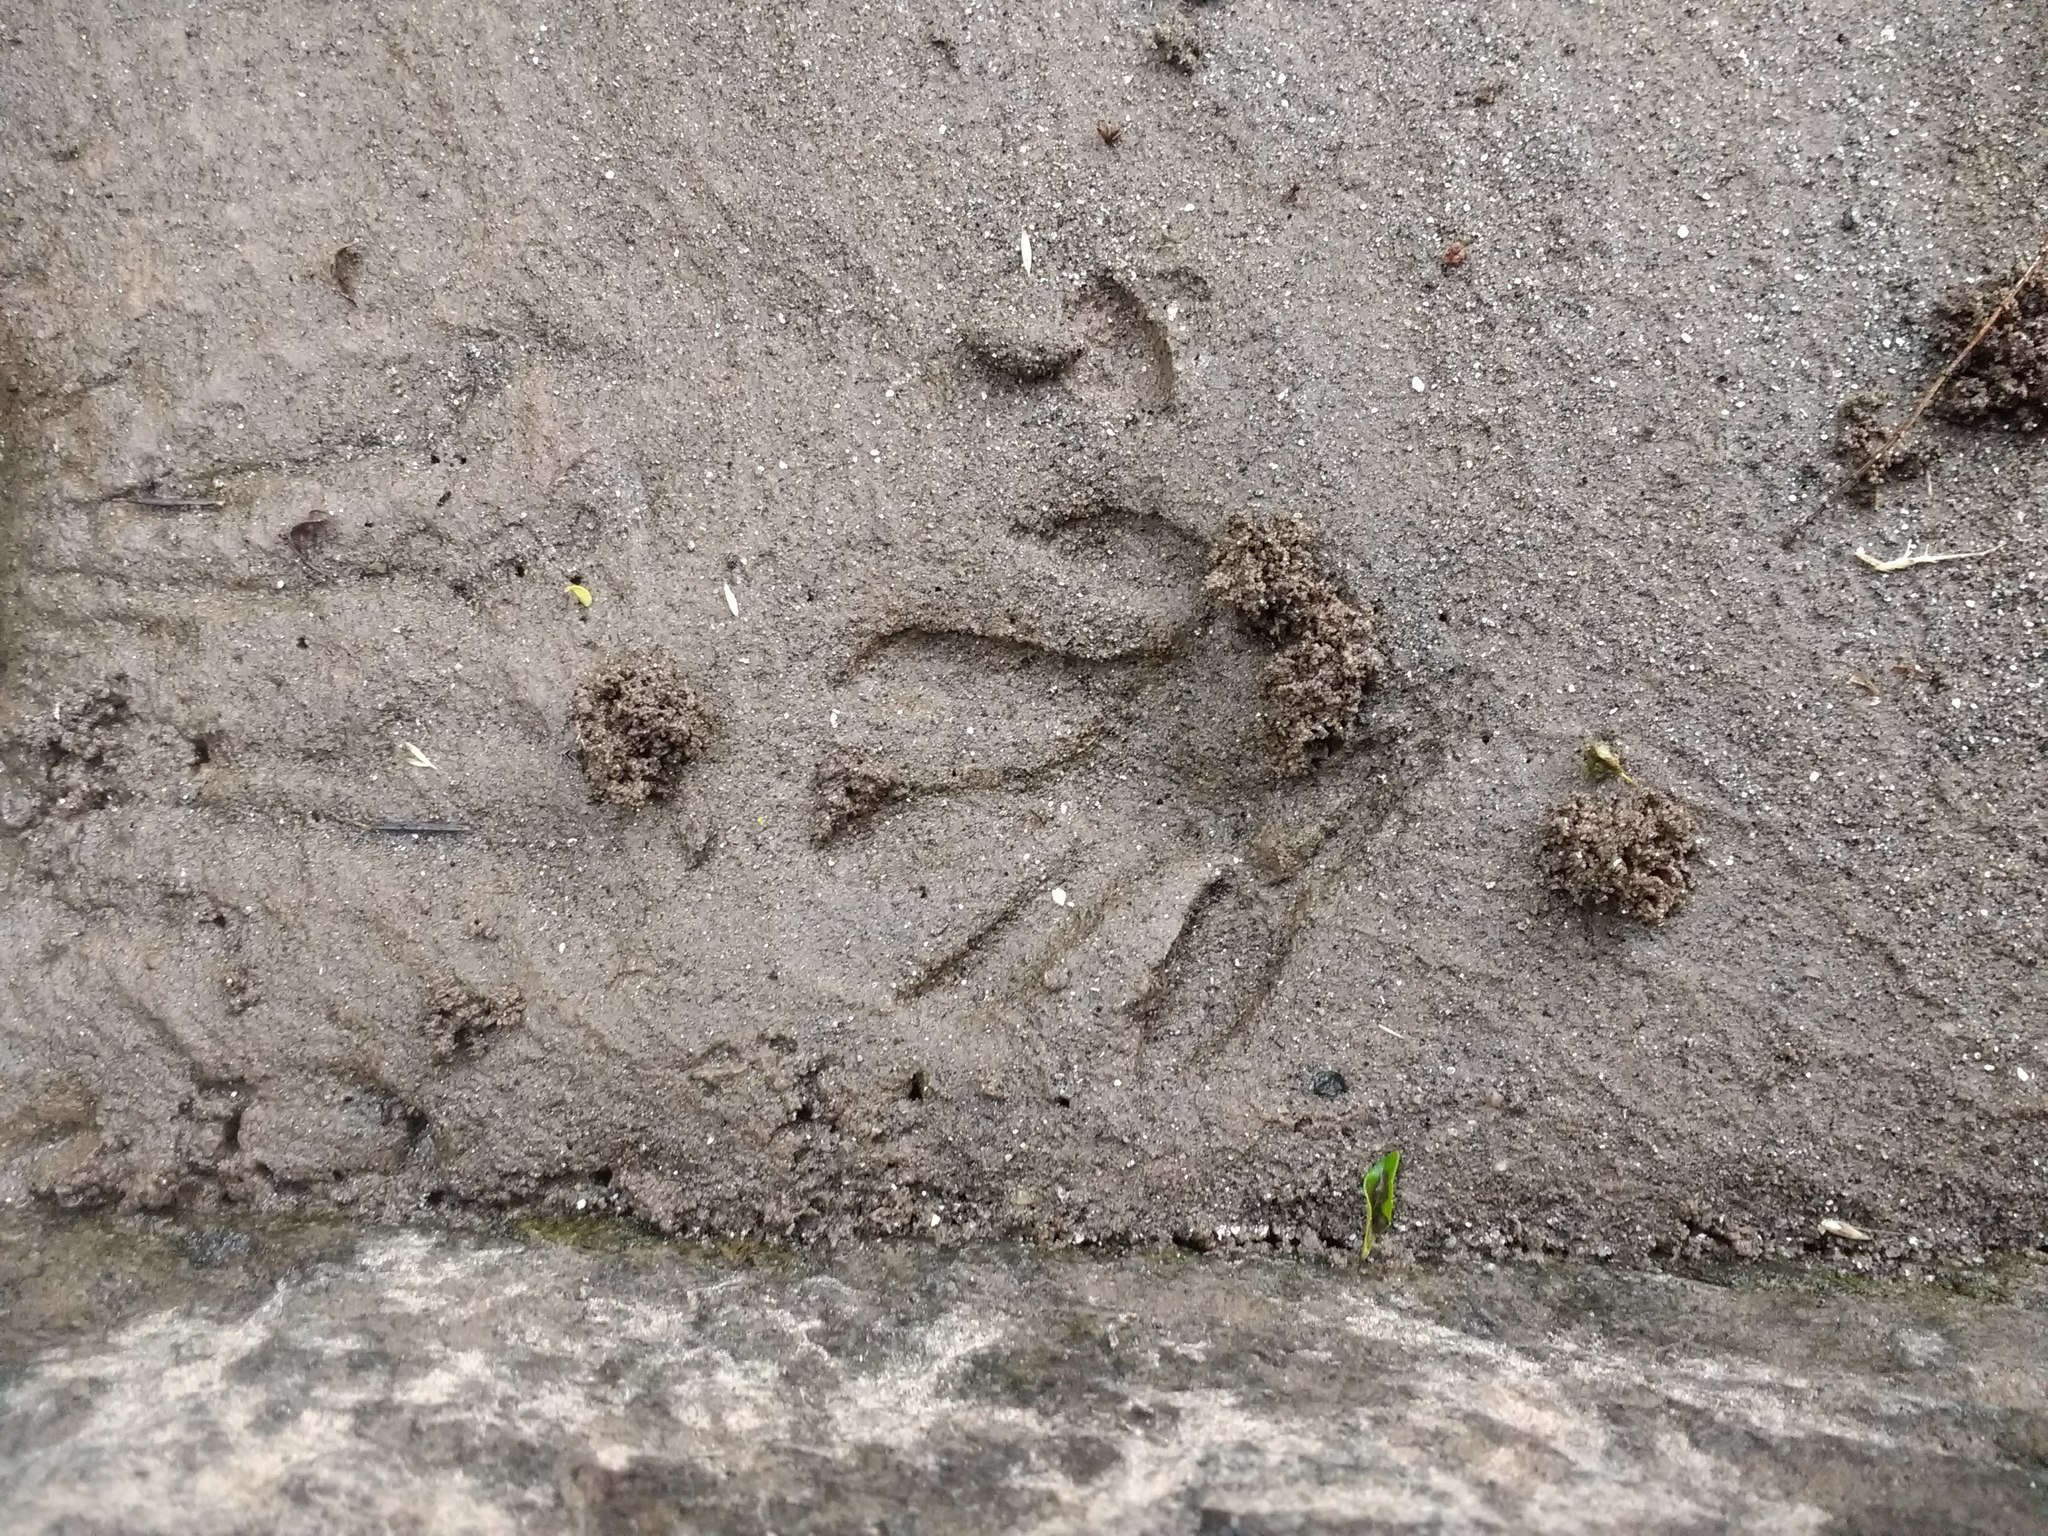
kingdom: Animalia
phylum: Chordata
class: Mammalia
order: Carnivora
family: Procyonidae
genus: Procyon
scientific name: Procyon cancrivorus
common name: Crab-eating raccoon
